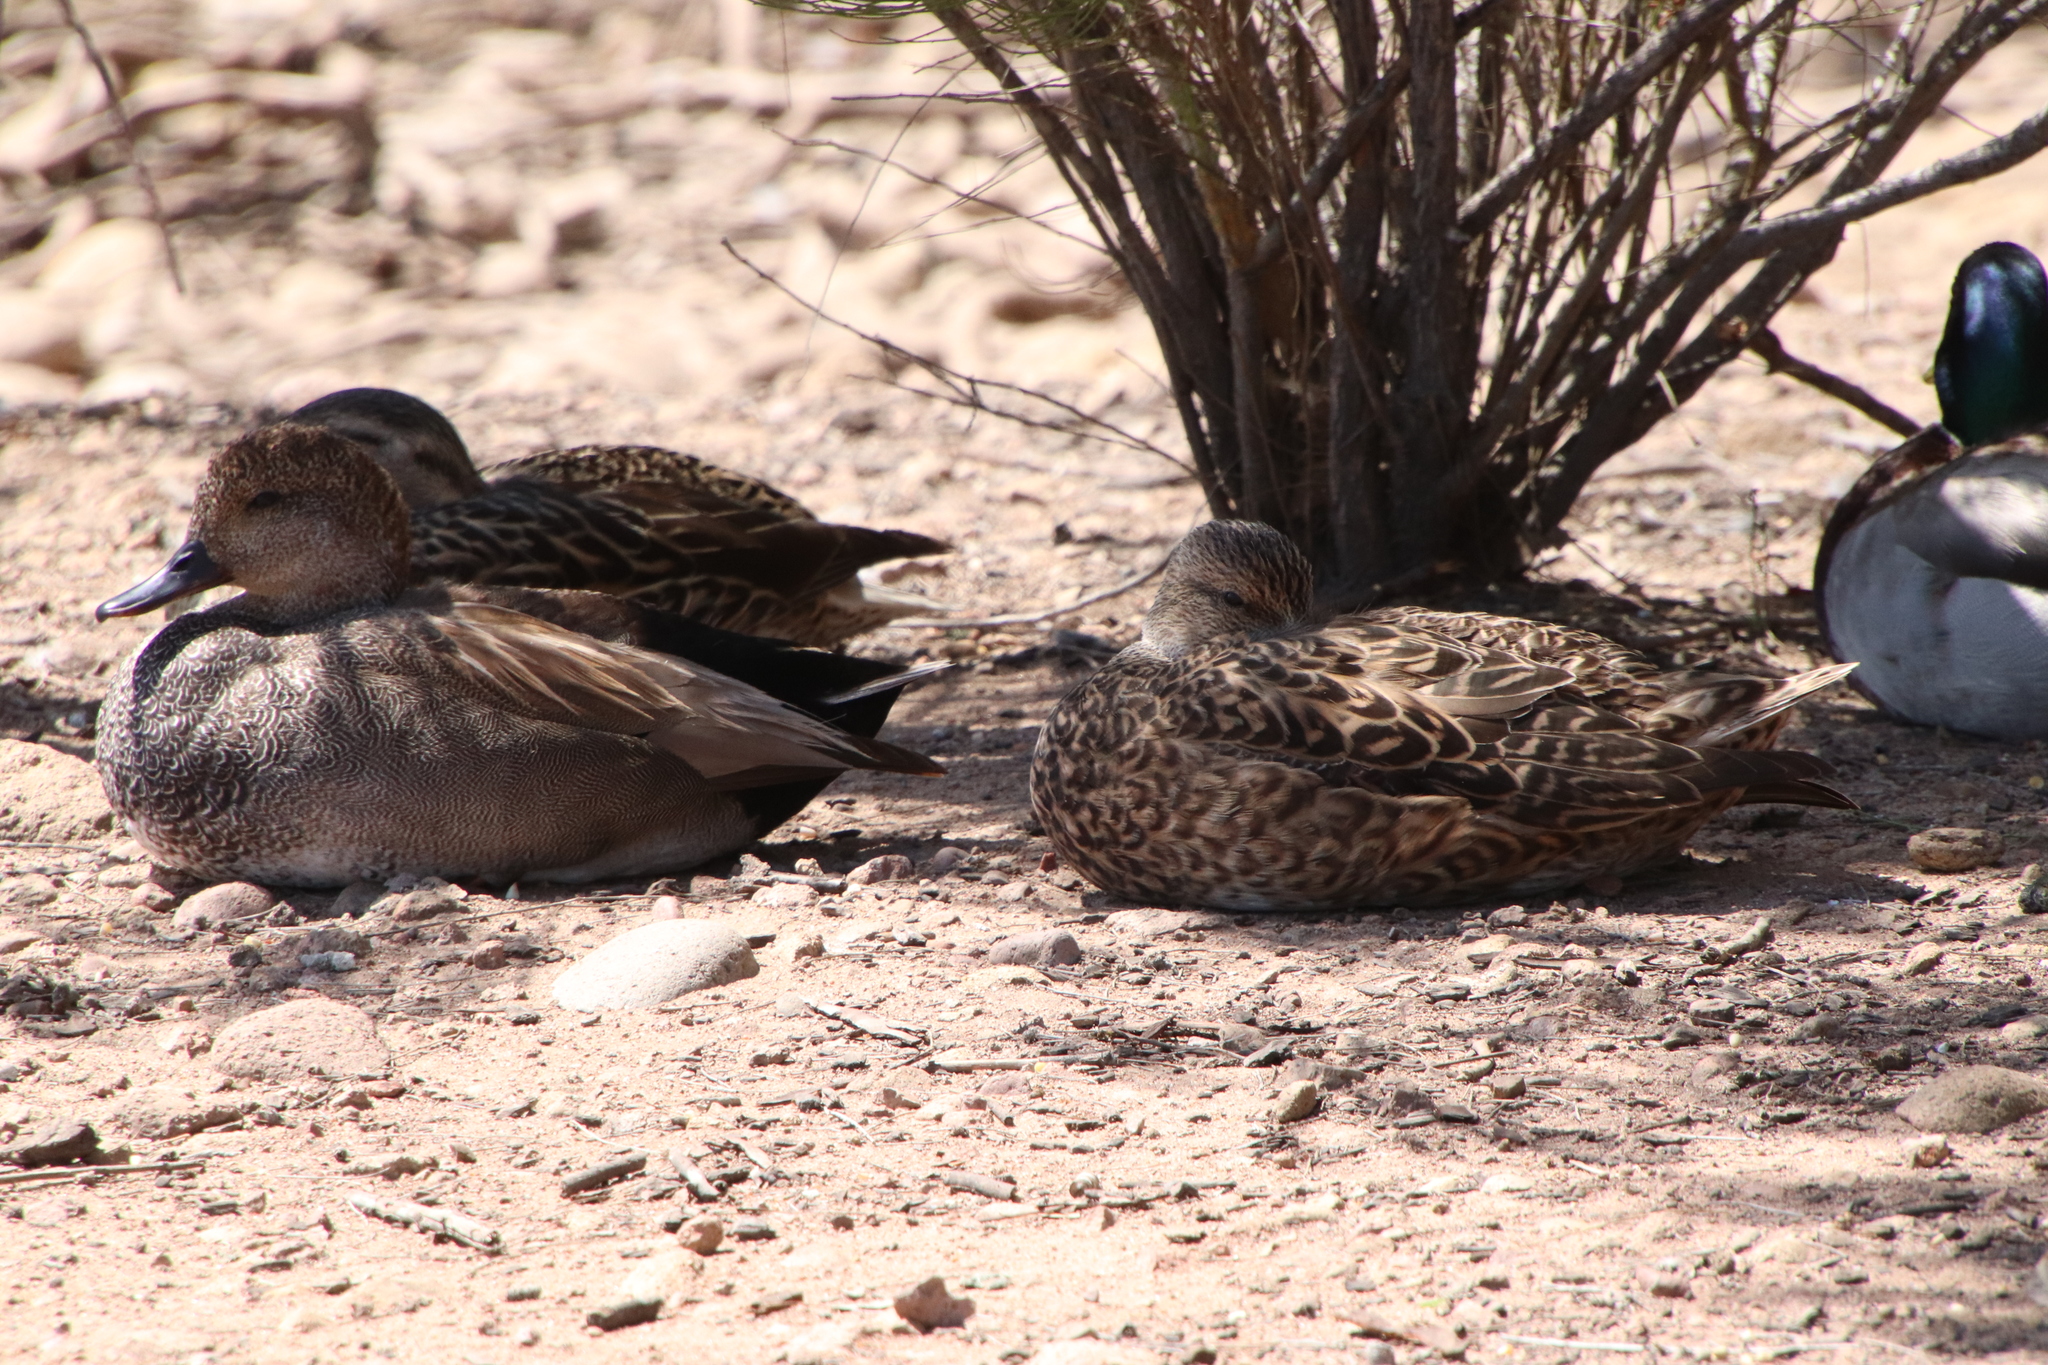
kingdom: Animalia
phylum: Chordata
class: Aves
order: Anseriformes
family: Anatidae
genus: Mareca
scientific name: Mareca strepera
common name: Gadwall
